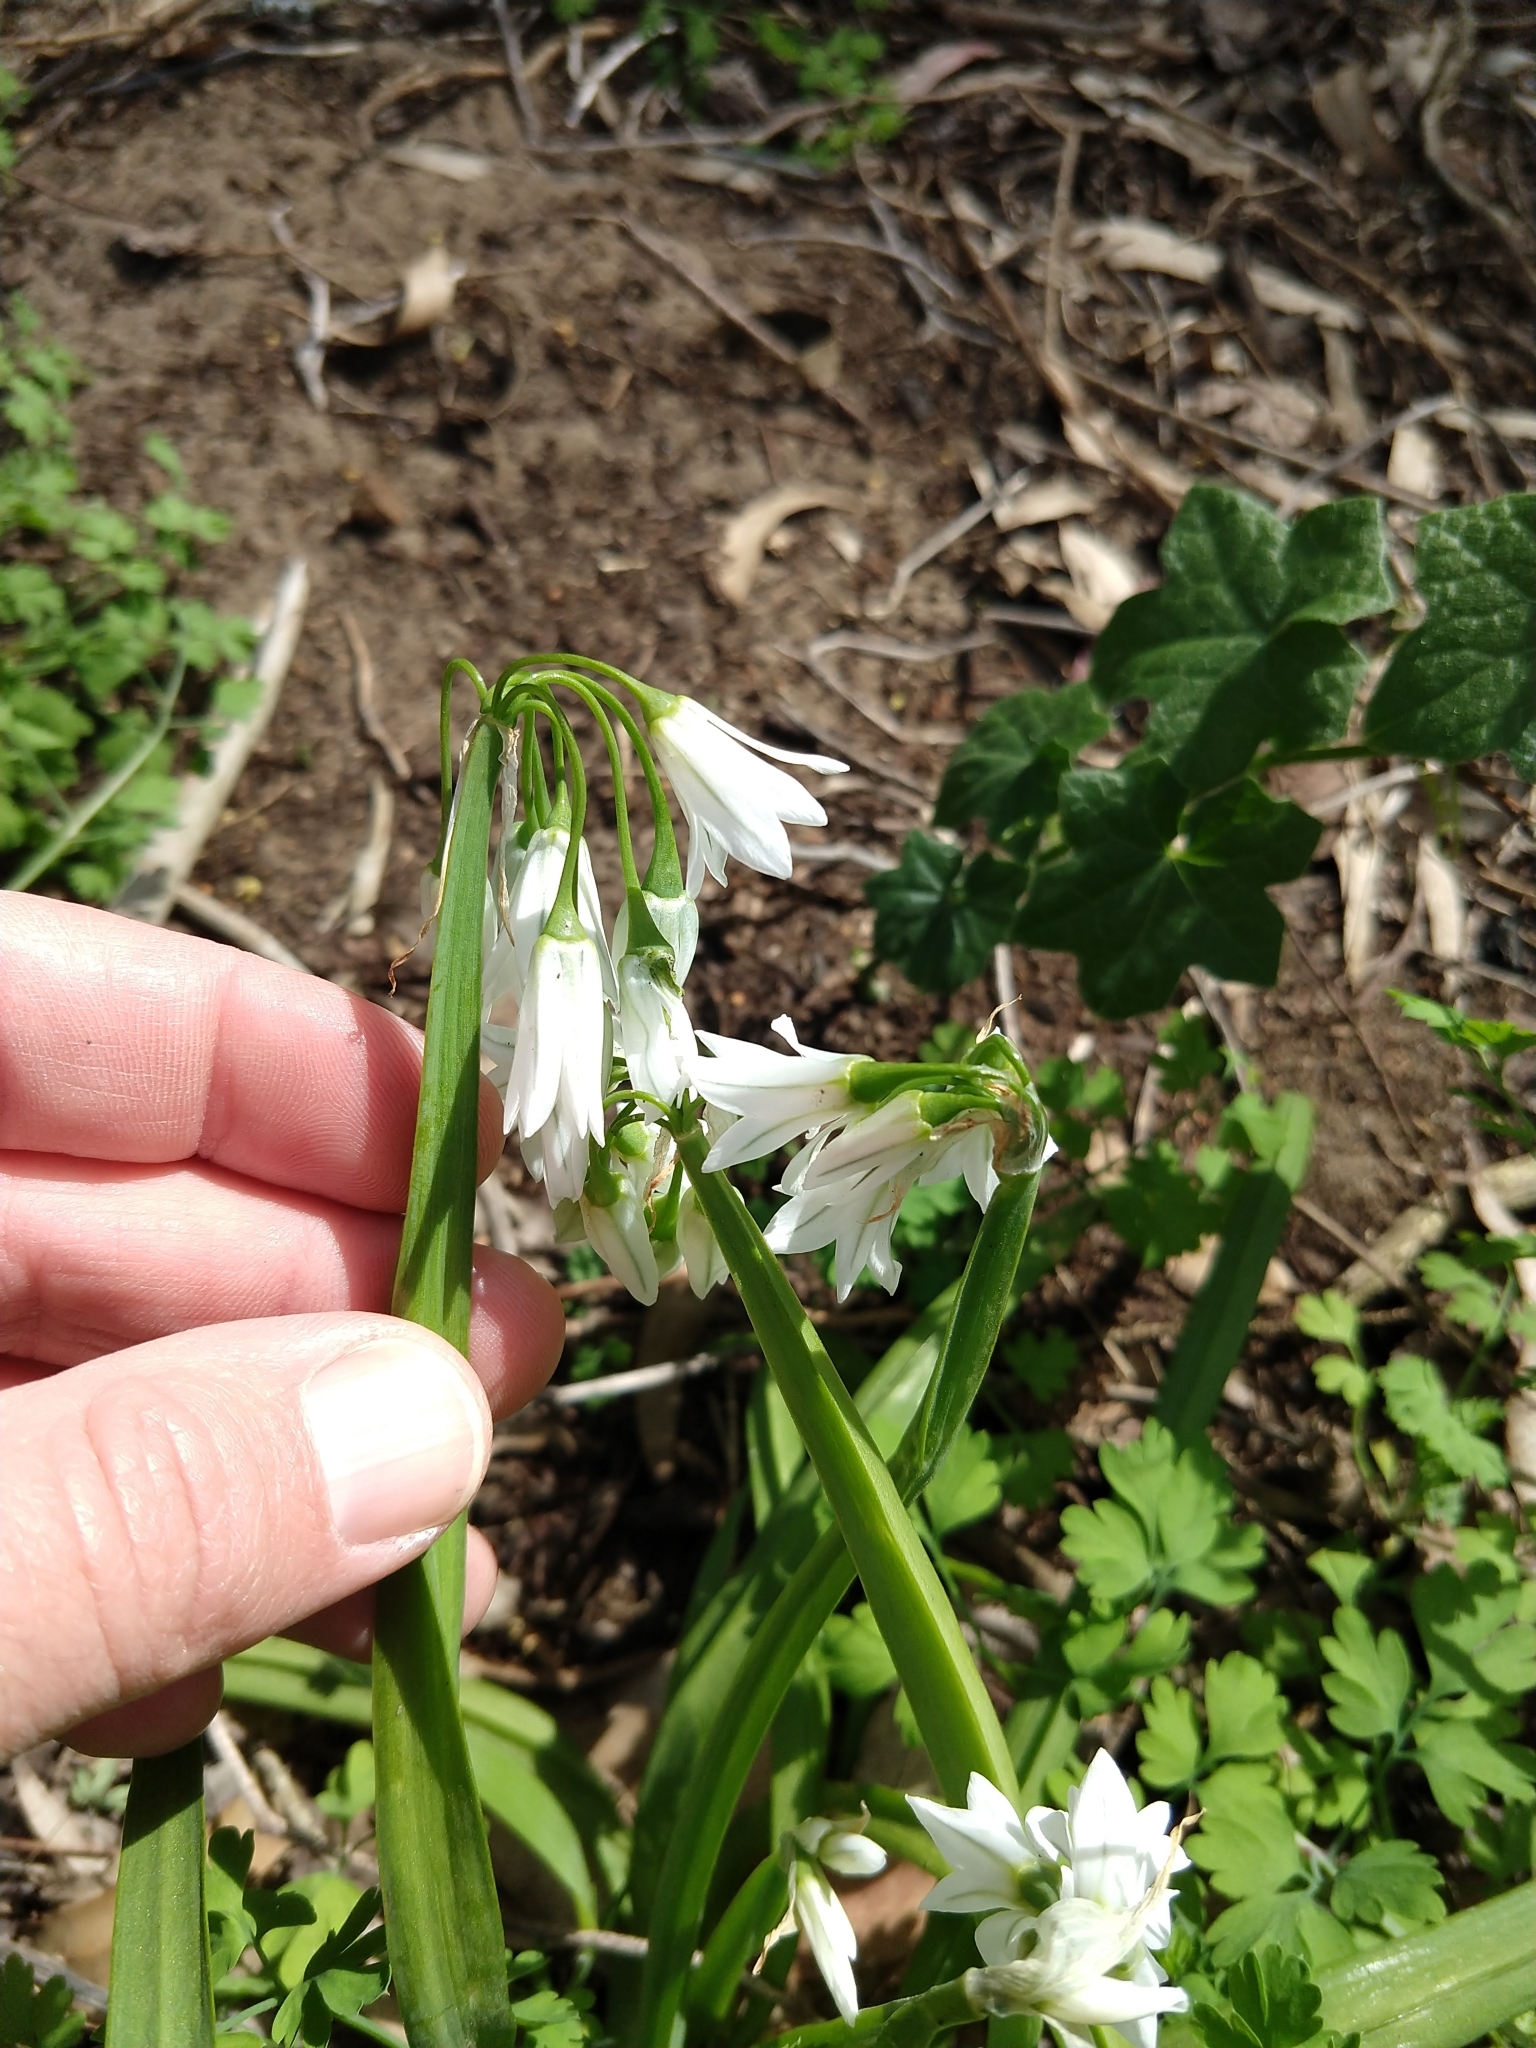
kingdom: Plantae
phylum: Tracheophyta
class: Liliopsida
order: Asparagales
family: Amaryllidaceae
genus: Allium
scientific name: Allium triquetrum
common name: Three-cornered garlic
